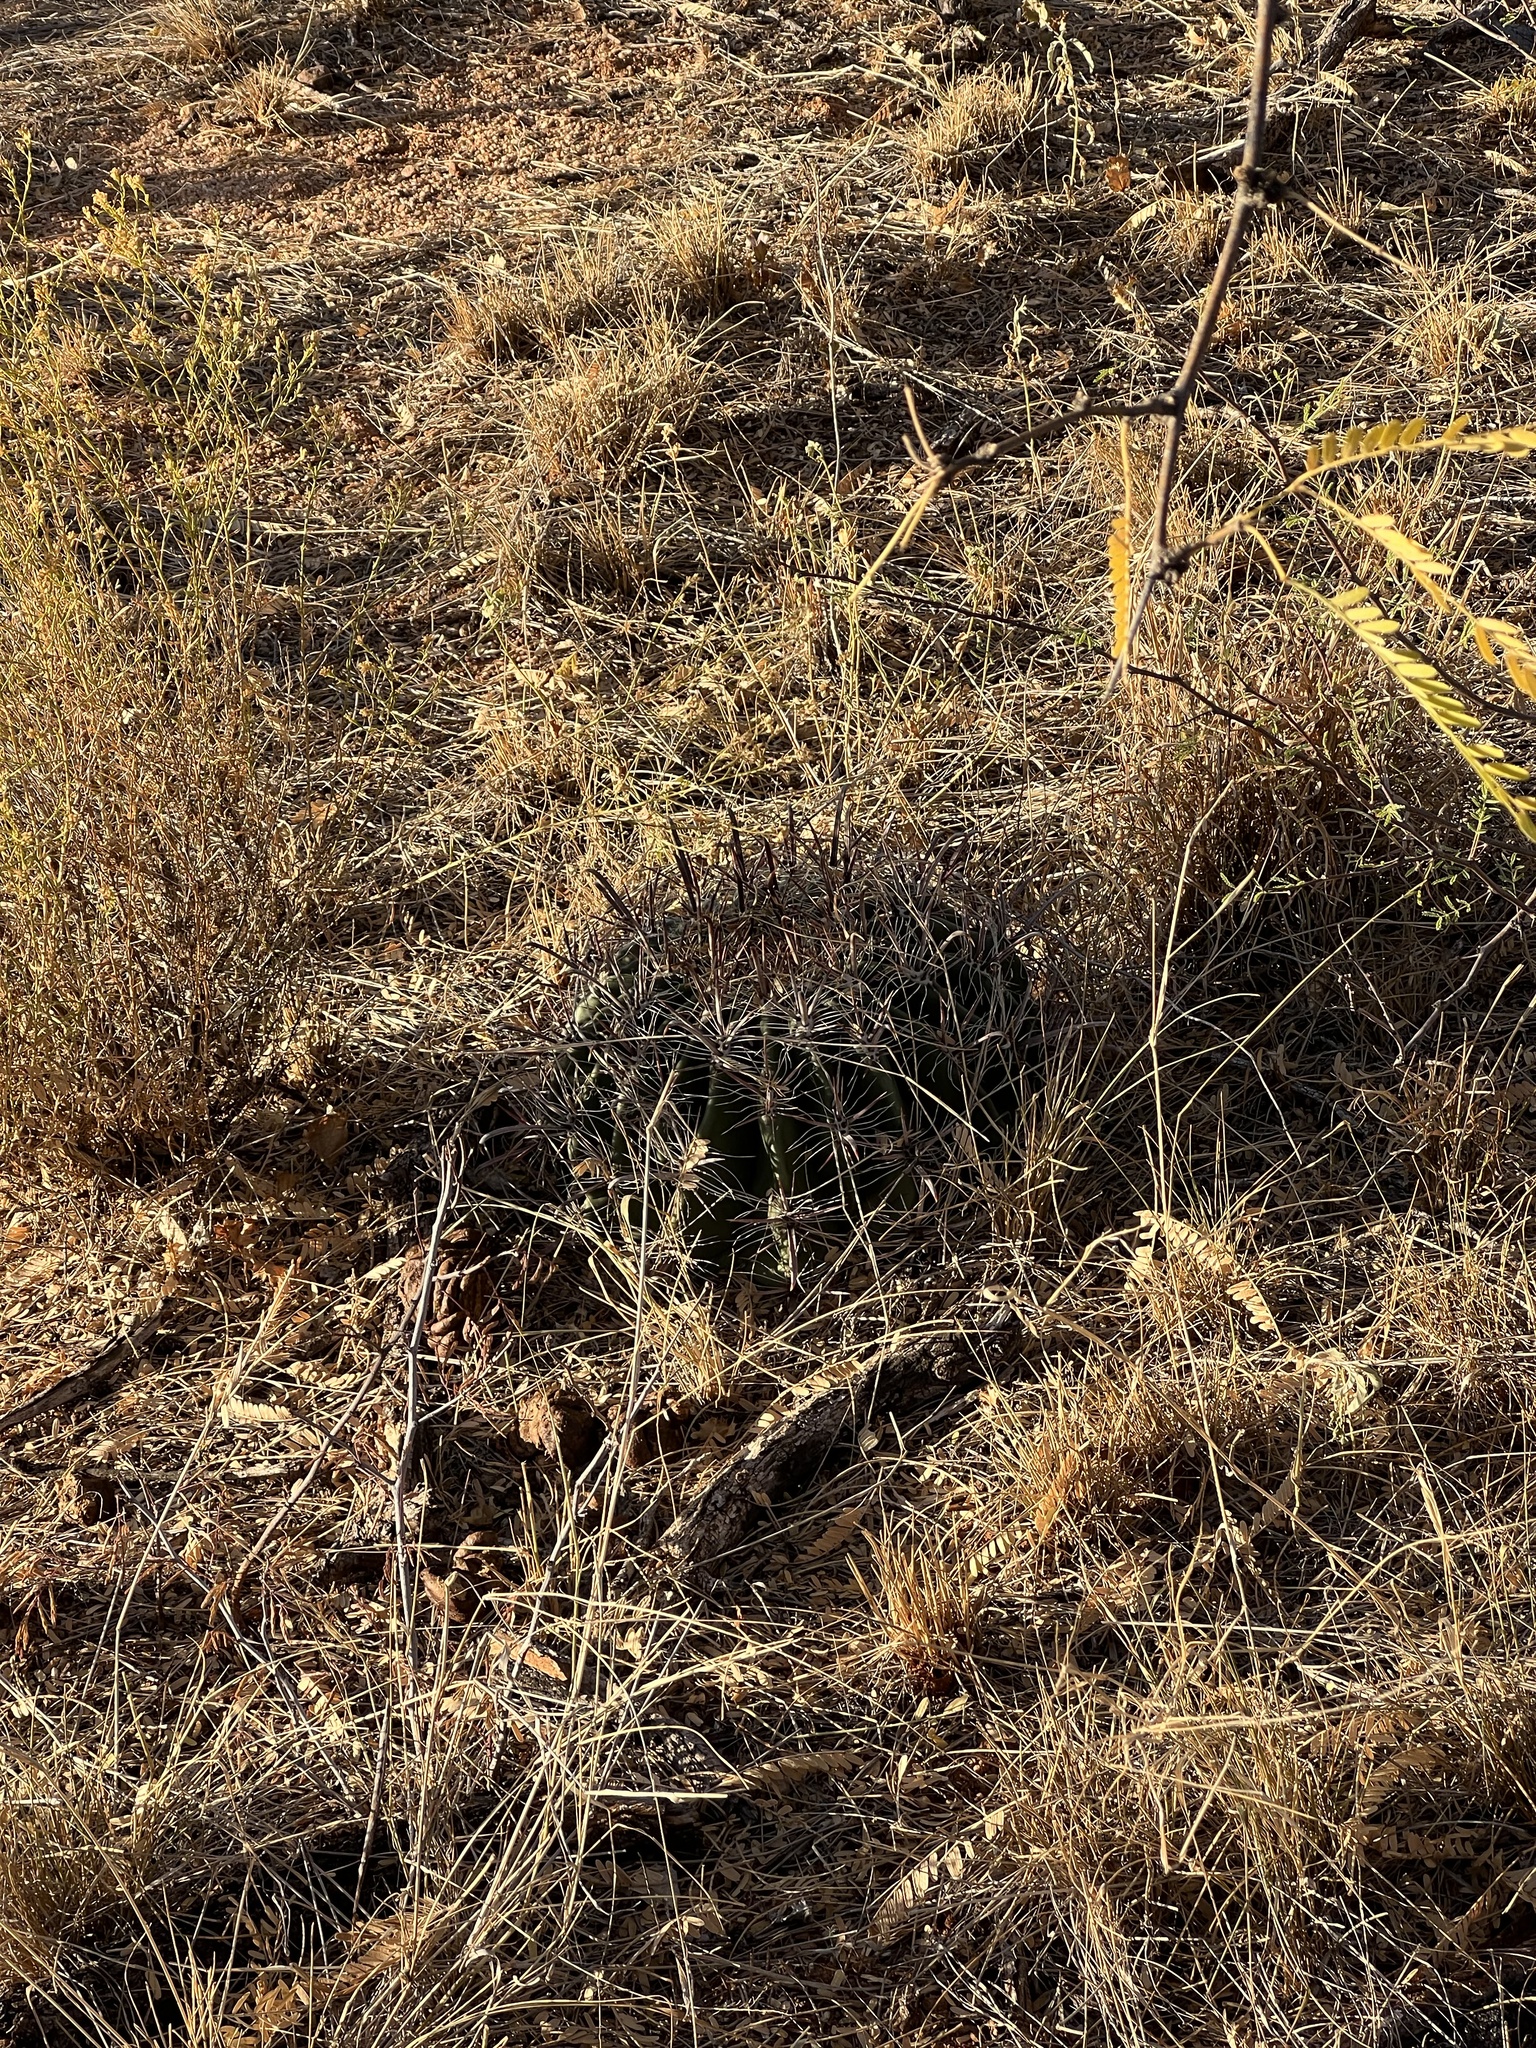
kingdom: Plantae
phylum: Tracheophyta
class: Magnoliopsida
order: Caryophyllales
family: Cactaceae
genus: Ferocactus
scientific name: Ferocactus wislizeni
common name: Candy barrel cactus
